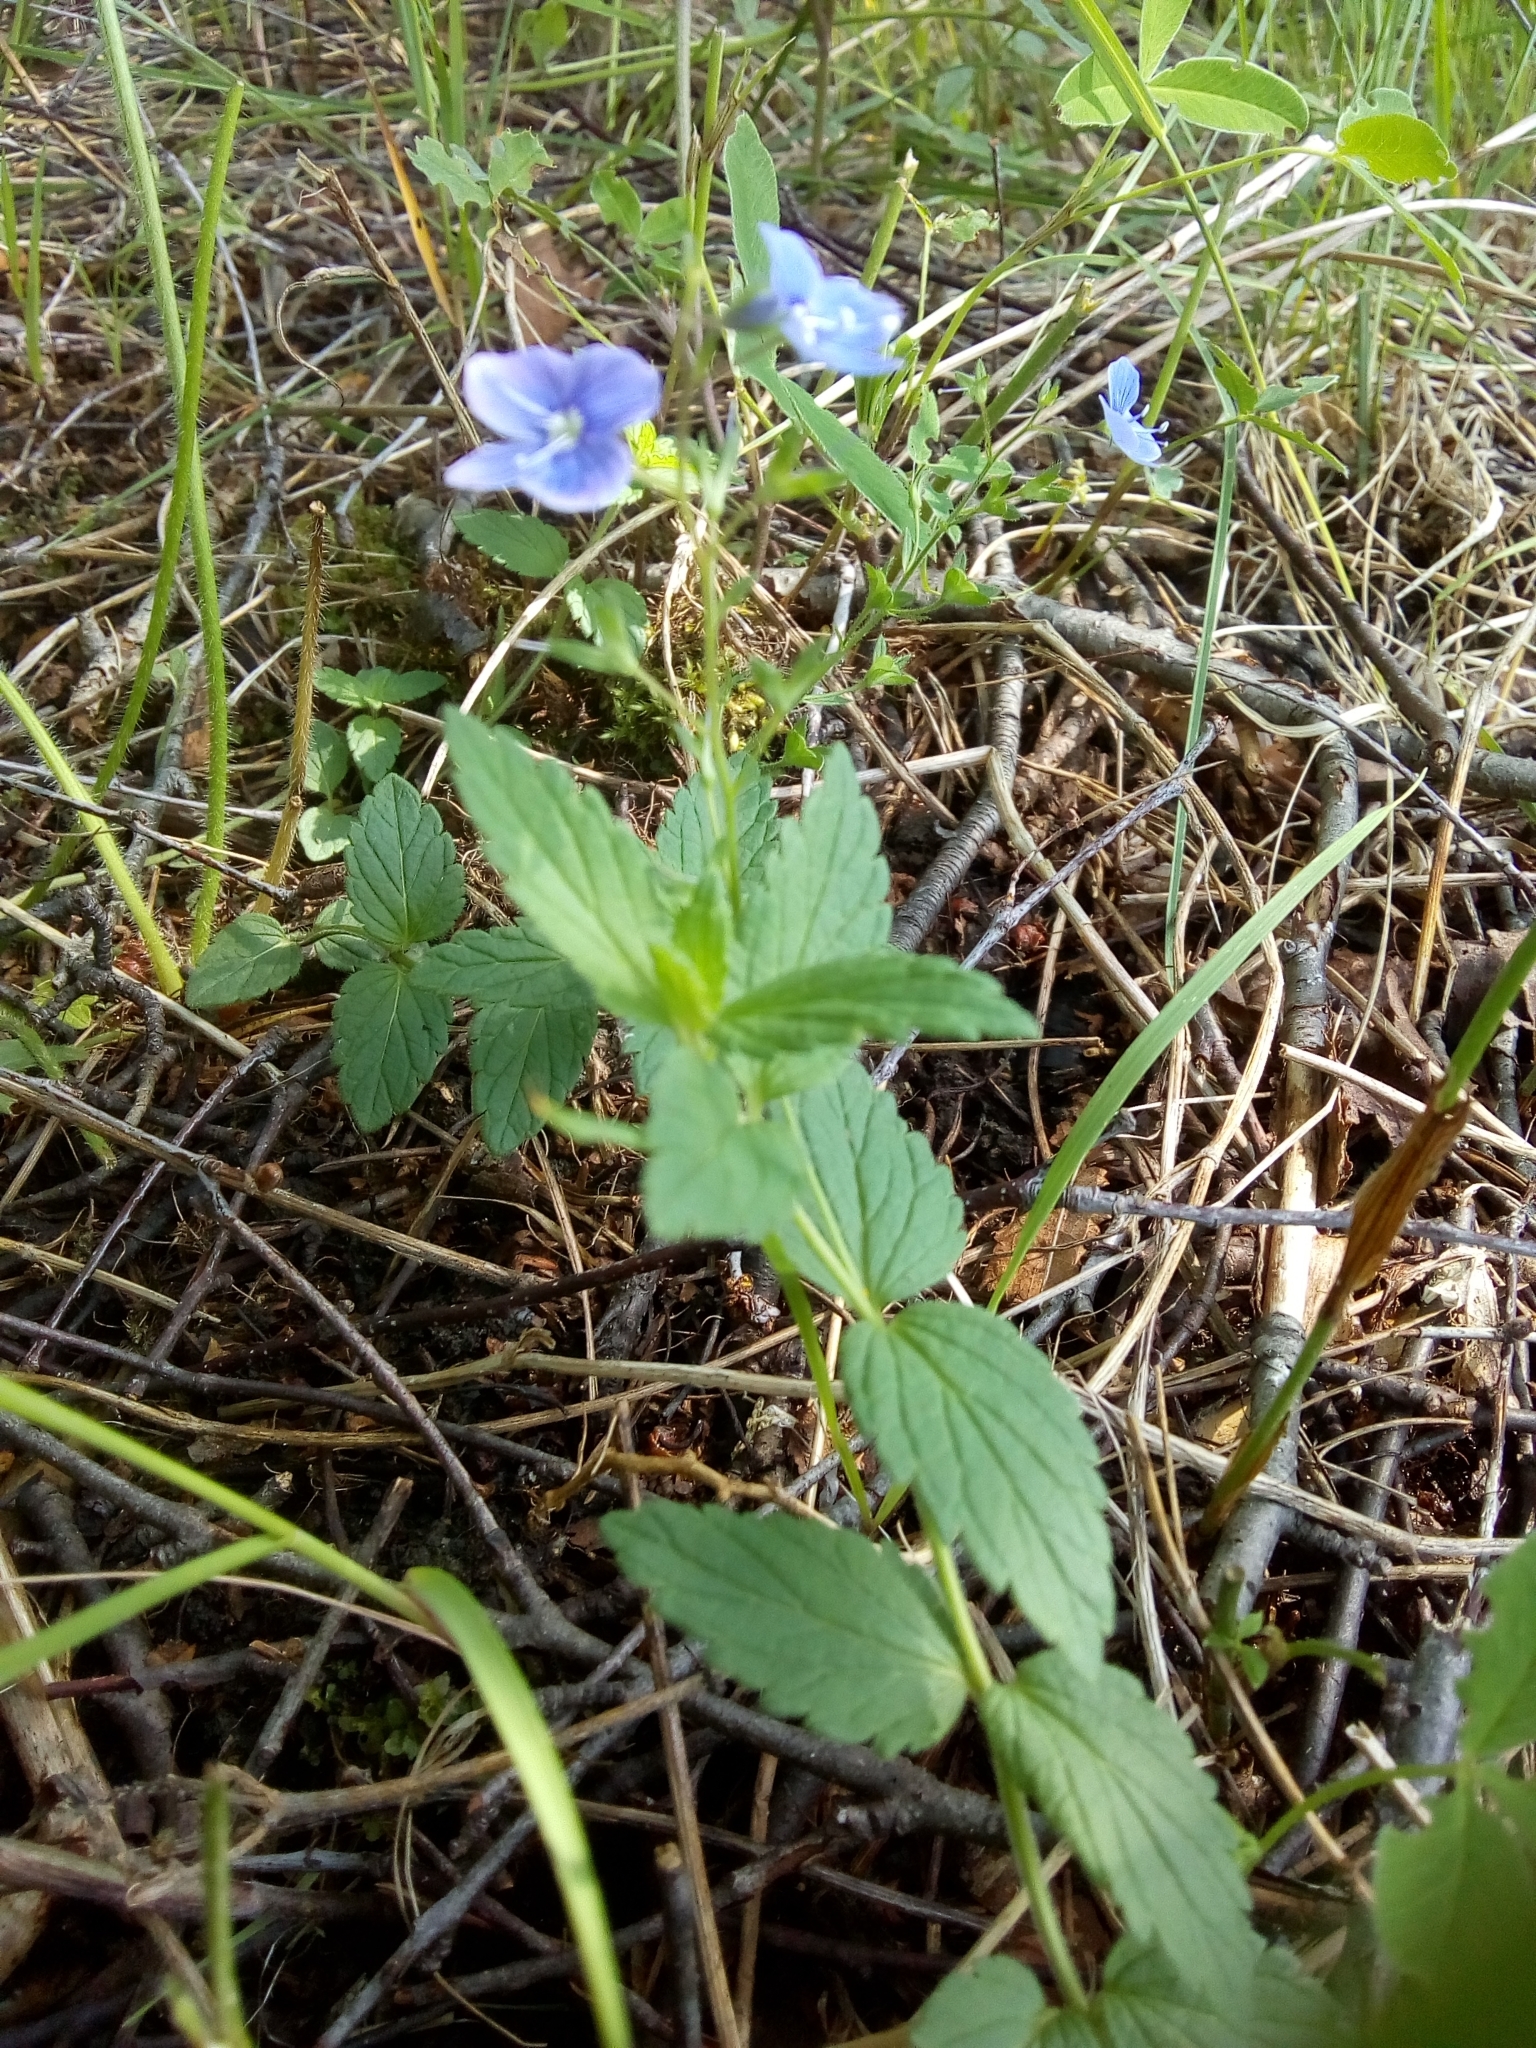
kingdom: Plantae
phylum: Tracheophyta
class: Magnoliopsida
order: Lamiales
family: Plantaginaceae
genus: Veronica
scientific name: Veronica chamaedrys
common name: Germander speedwell
